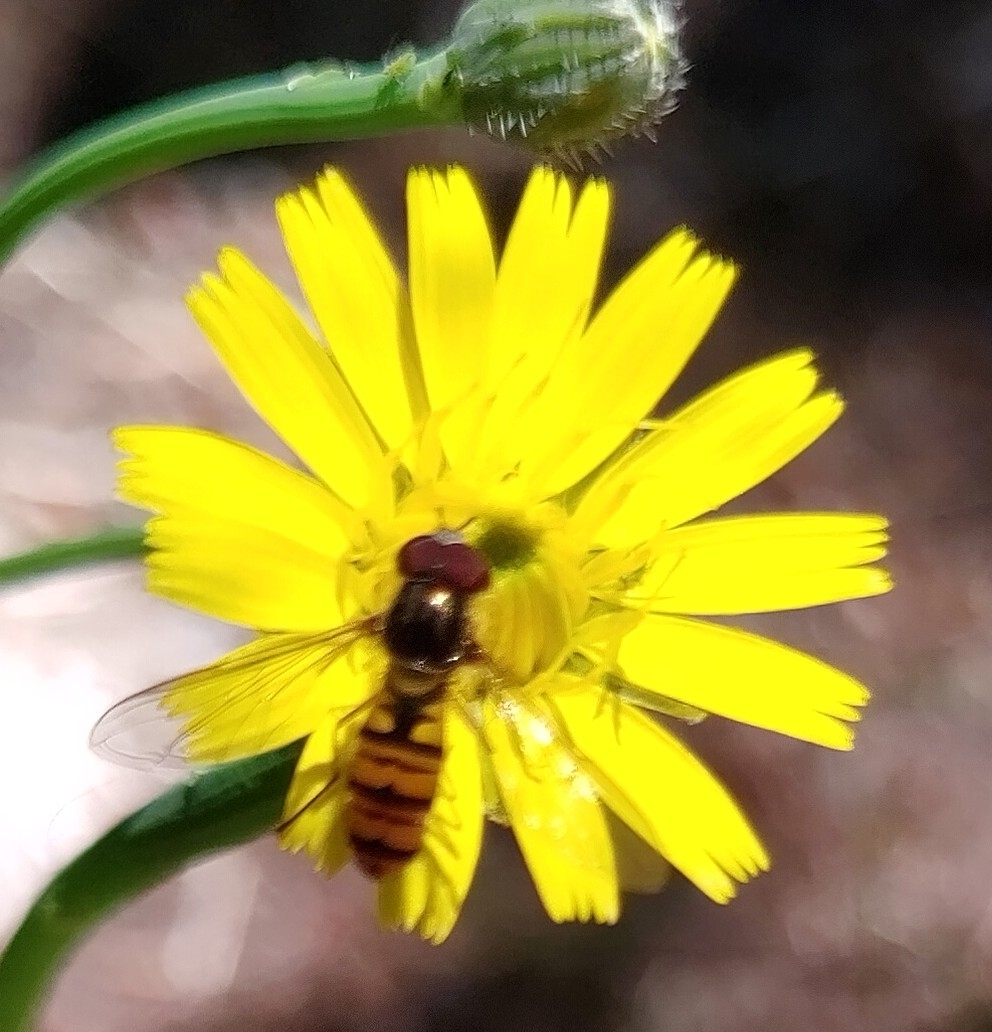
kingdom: Animalia
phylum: Arthropoda
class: Insecta
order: Diptera
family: Syrphidae
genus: Episyrphus
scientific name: Episyrphus balteatus
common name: Marmalade hoverfly
